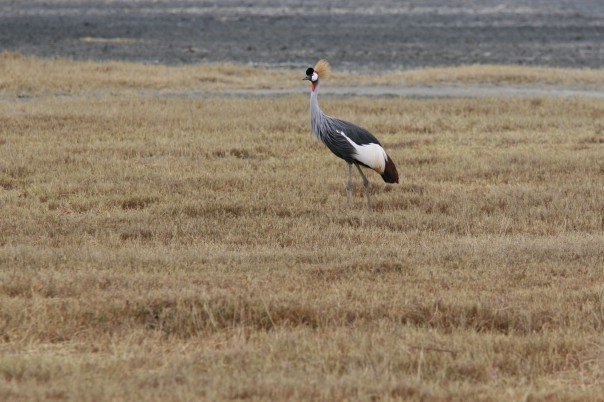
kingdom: Animalia
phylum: Chordata
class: Aves
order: Gruiformes
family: Gruidae
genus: Balearica
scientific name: Balearica regulorum
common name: Grey crowned crane
